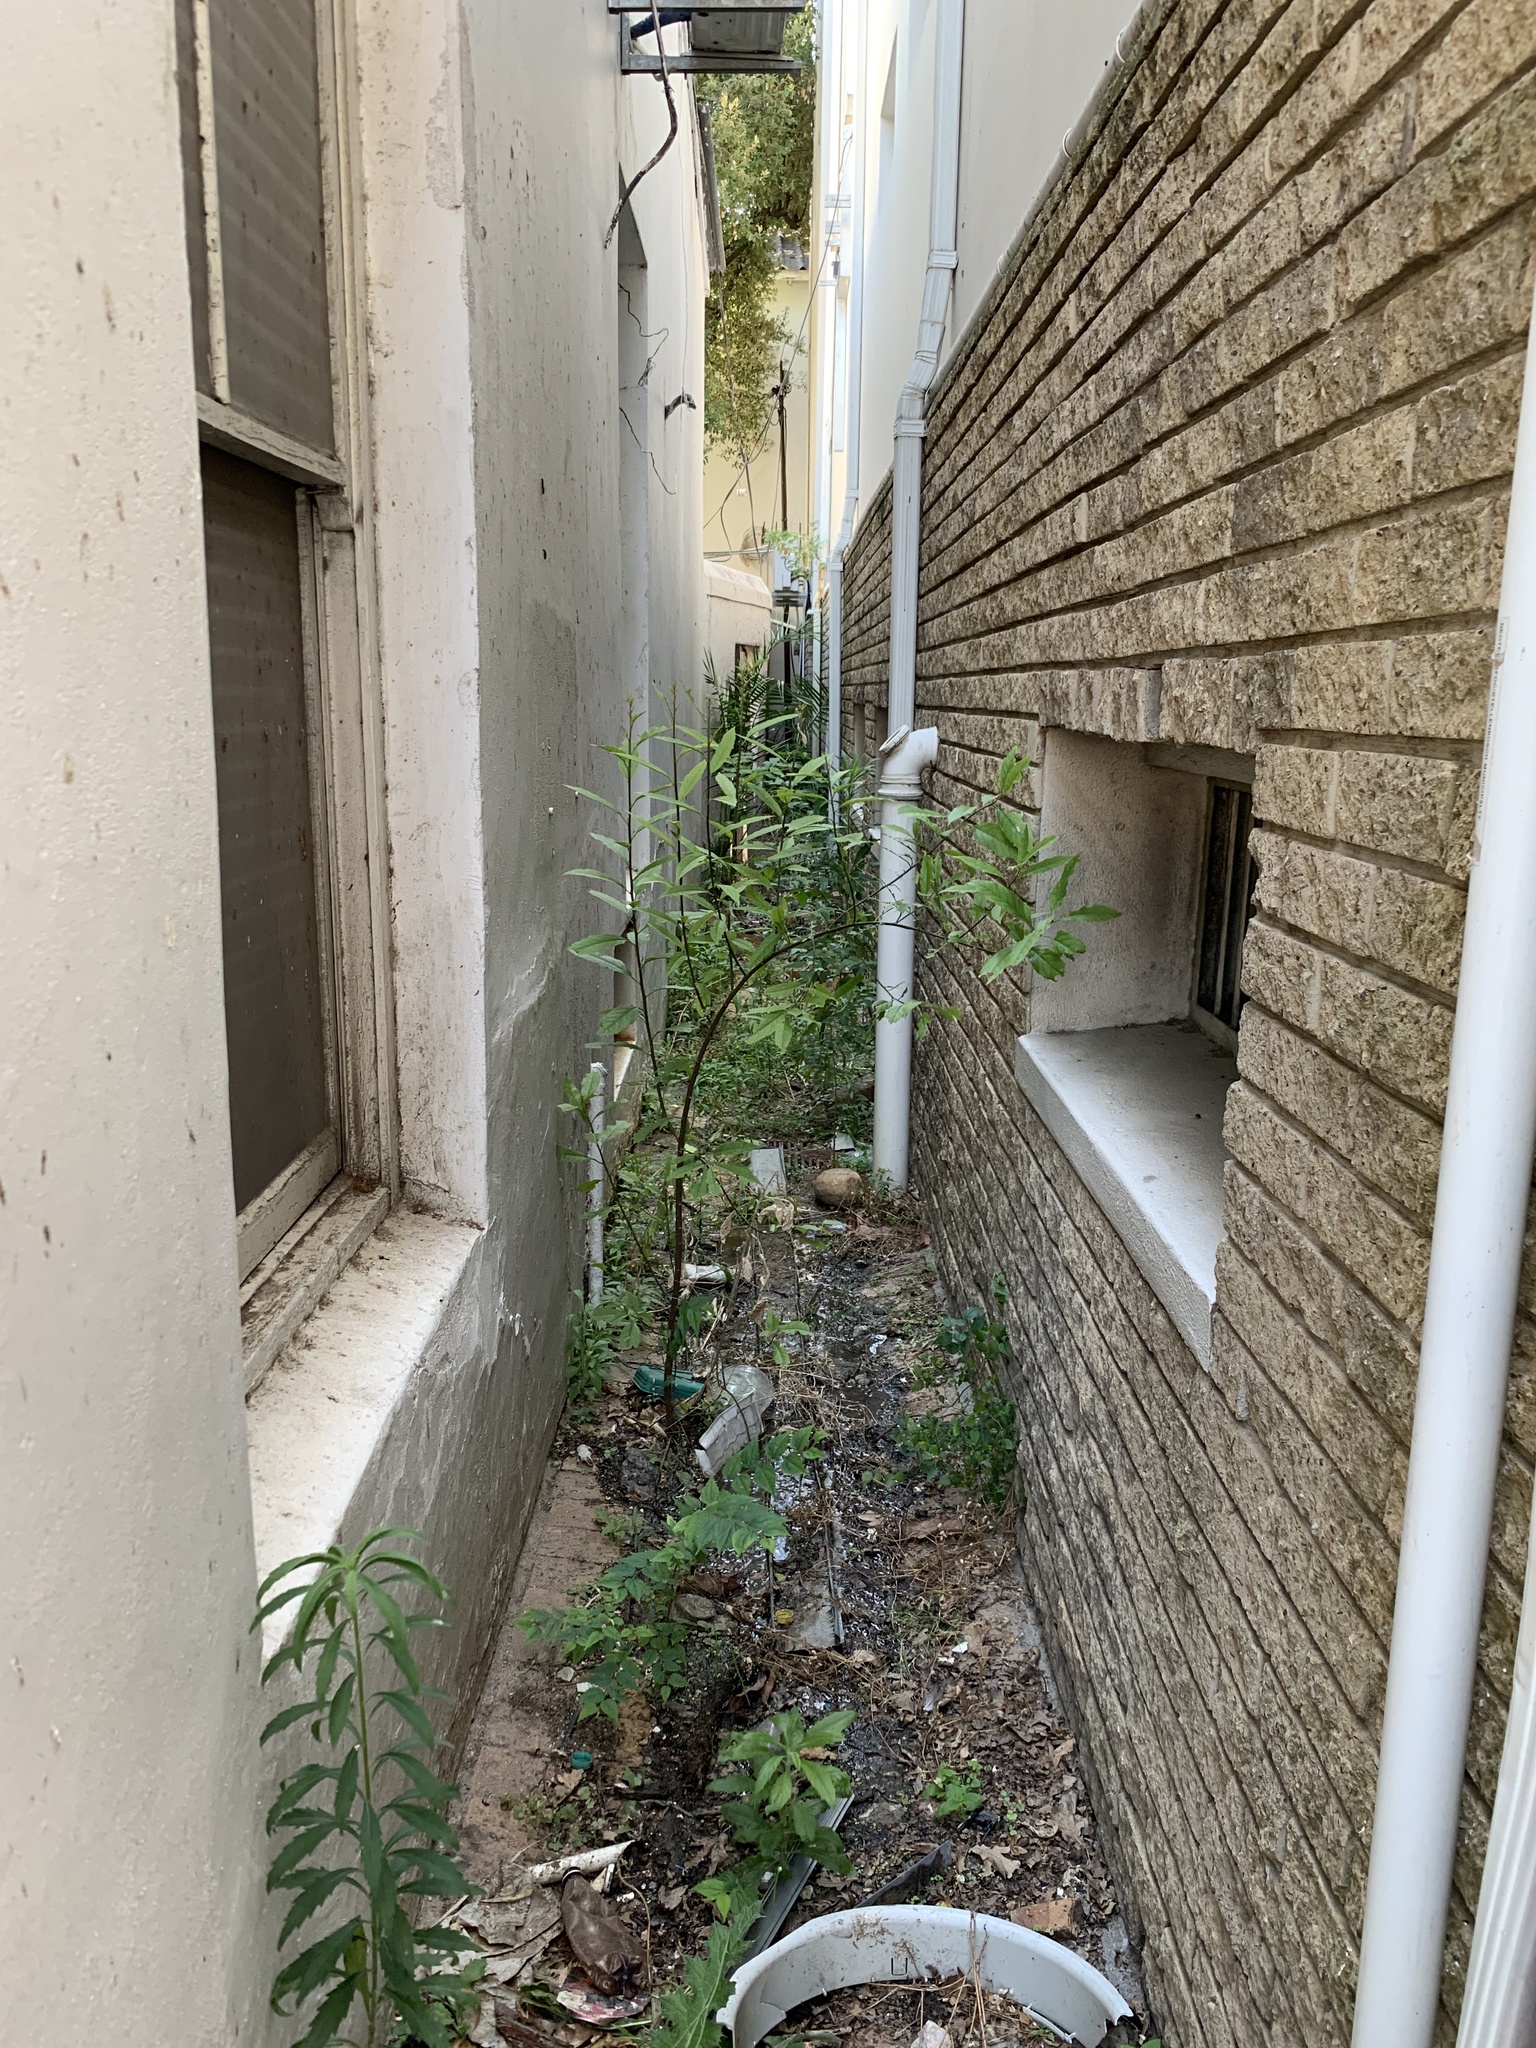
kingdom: Plantae
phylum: Tracheophyta
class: Magnoliopsida
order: Malpighiales
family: Achariaceae
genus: Kiggelaria
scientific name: Kiggelaria africana
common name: Wild peach
